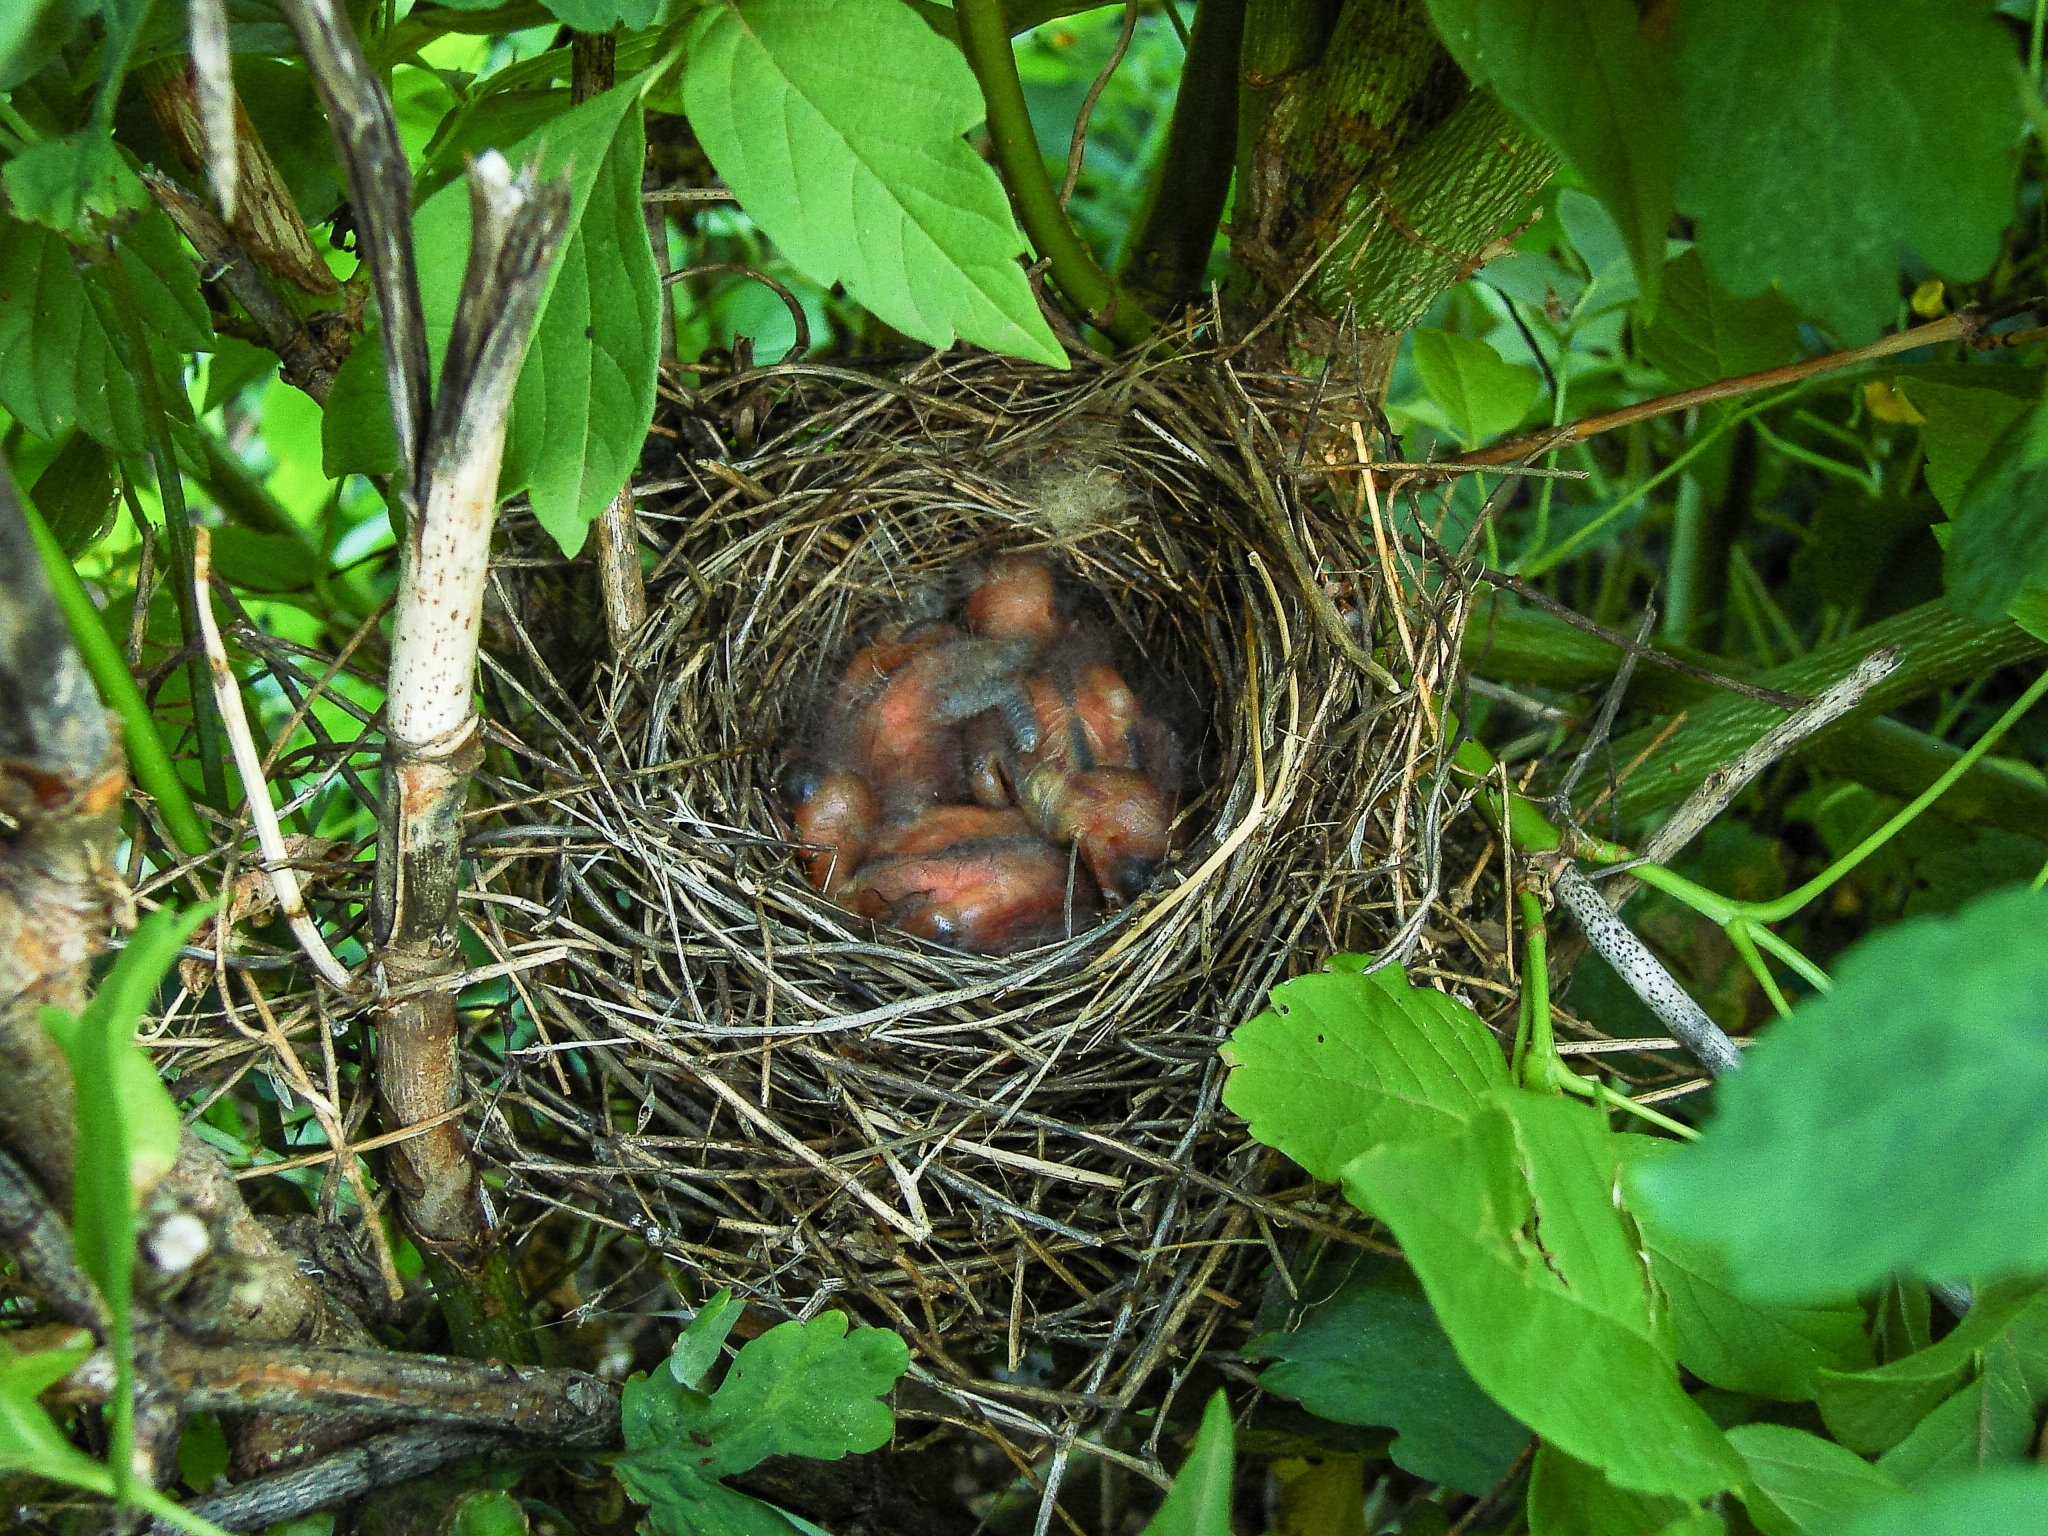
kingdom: Animalia
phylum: Chordata
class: Aves
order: Passeriformes
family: Fringillidae
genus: Carpodacus
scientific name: Carpodacus erythrinus
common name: Common rosefinch
